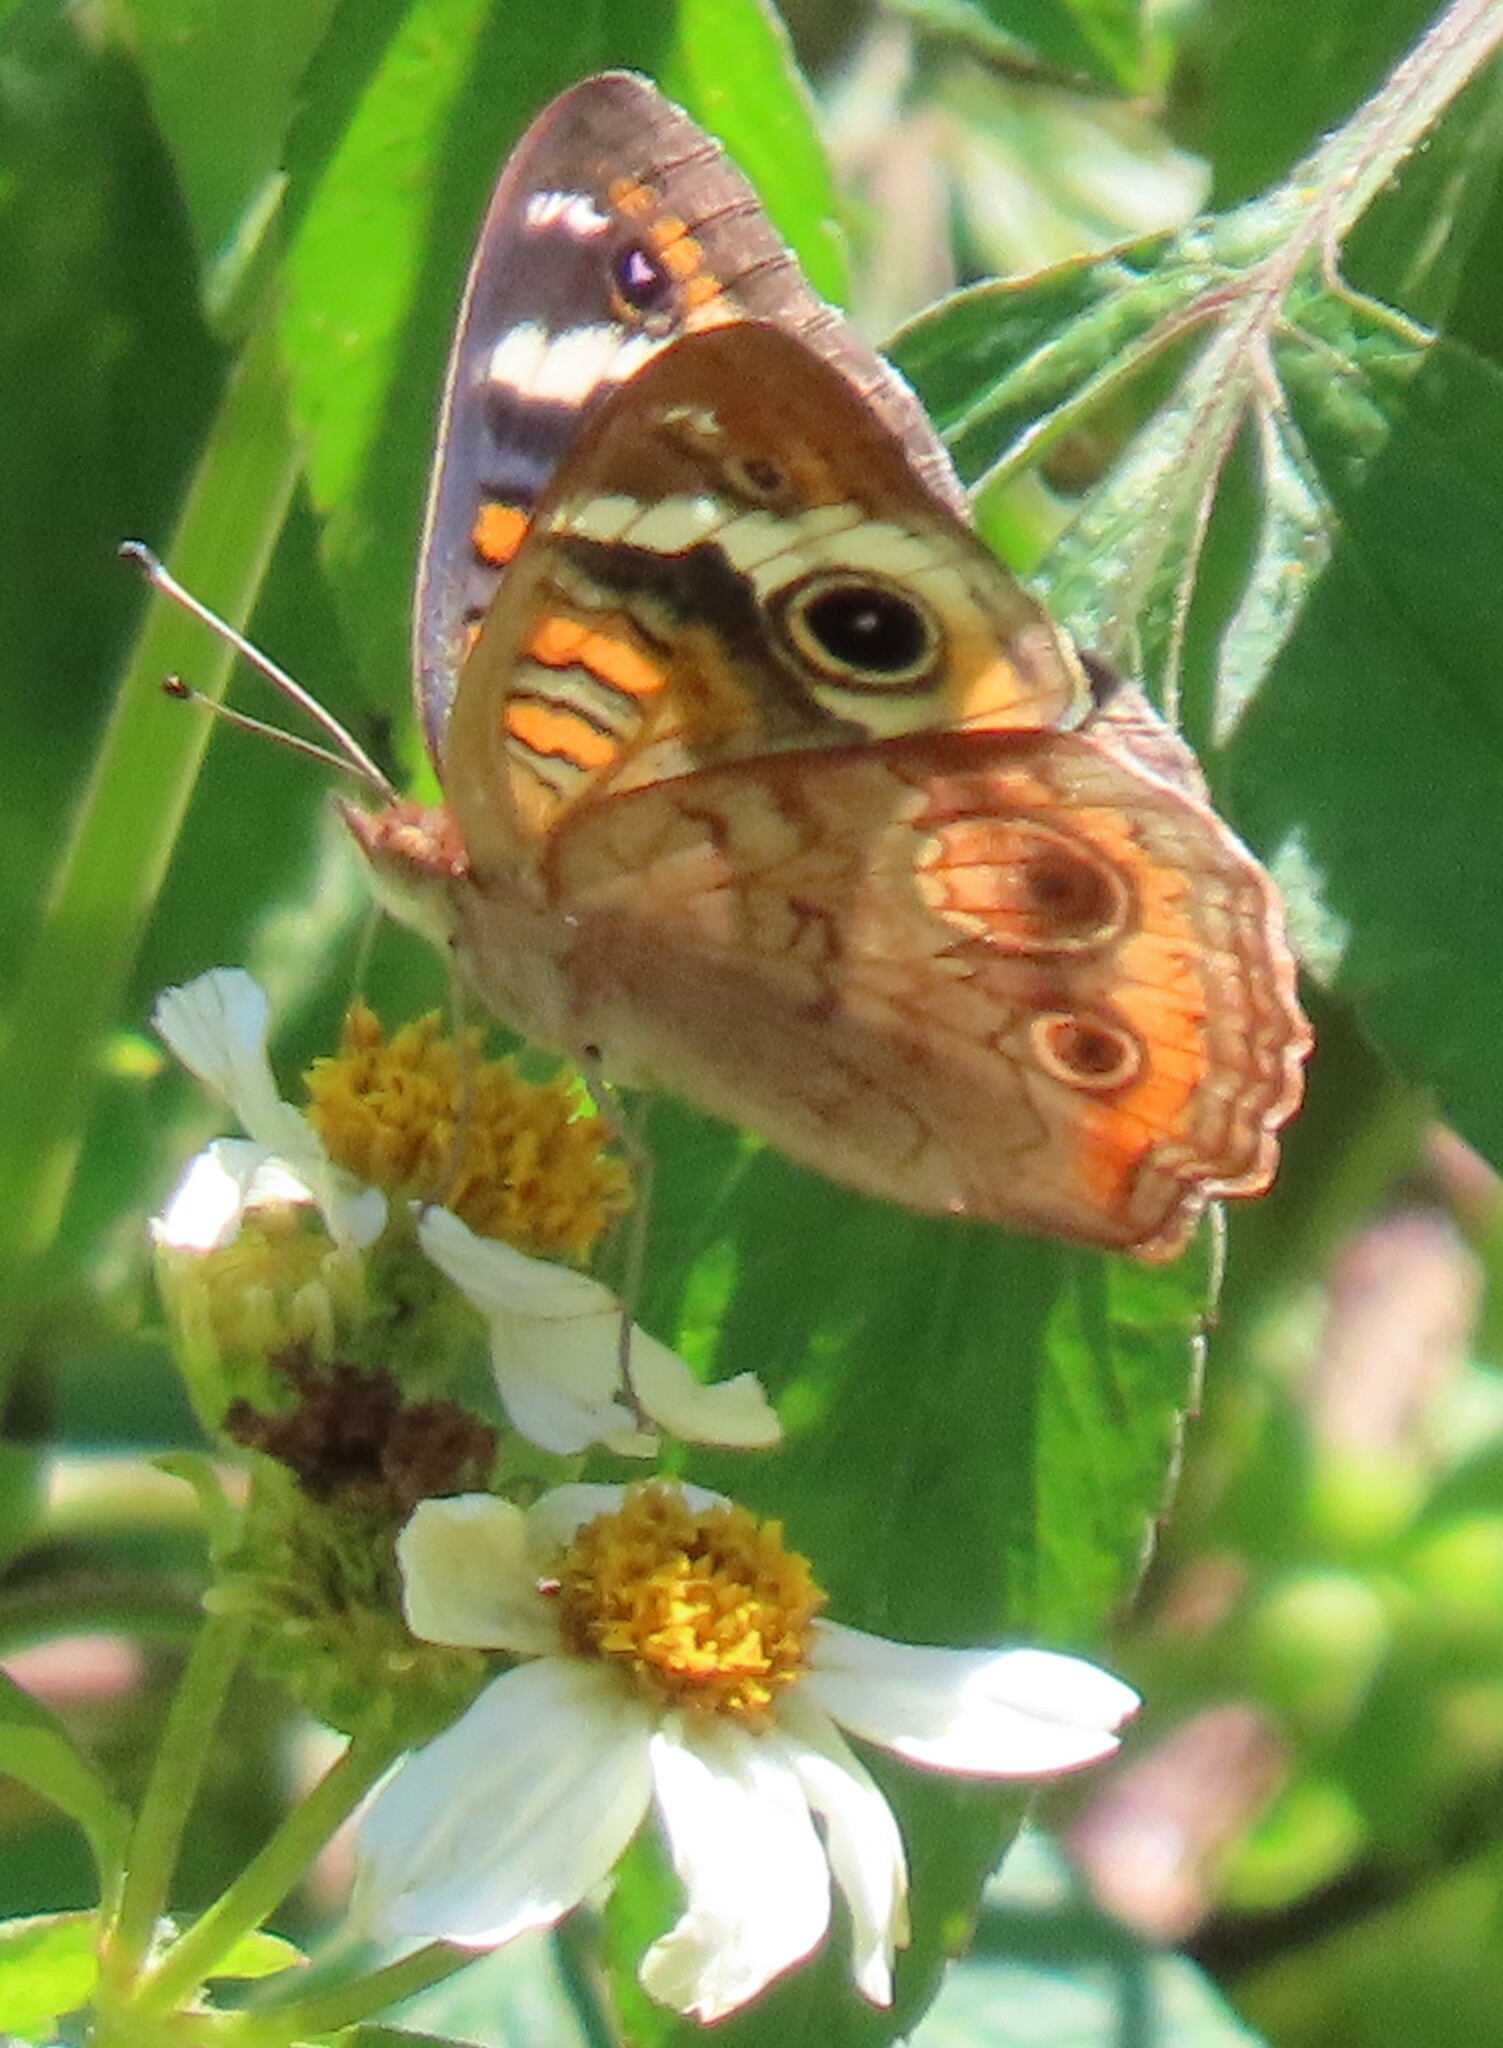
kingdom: Animalia
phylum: Arthropoda
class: Insecta
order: Lepidoptera
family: Nymphalidae
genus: Junonia
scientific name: Junonia coenia
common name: Common buckeye
